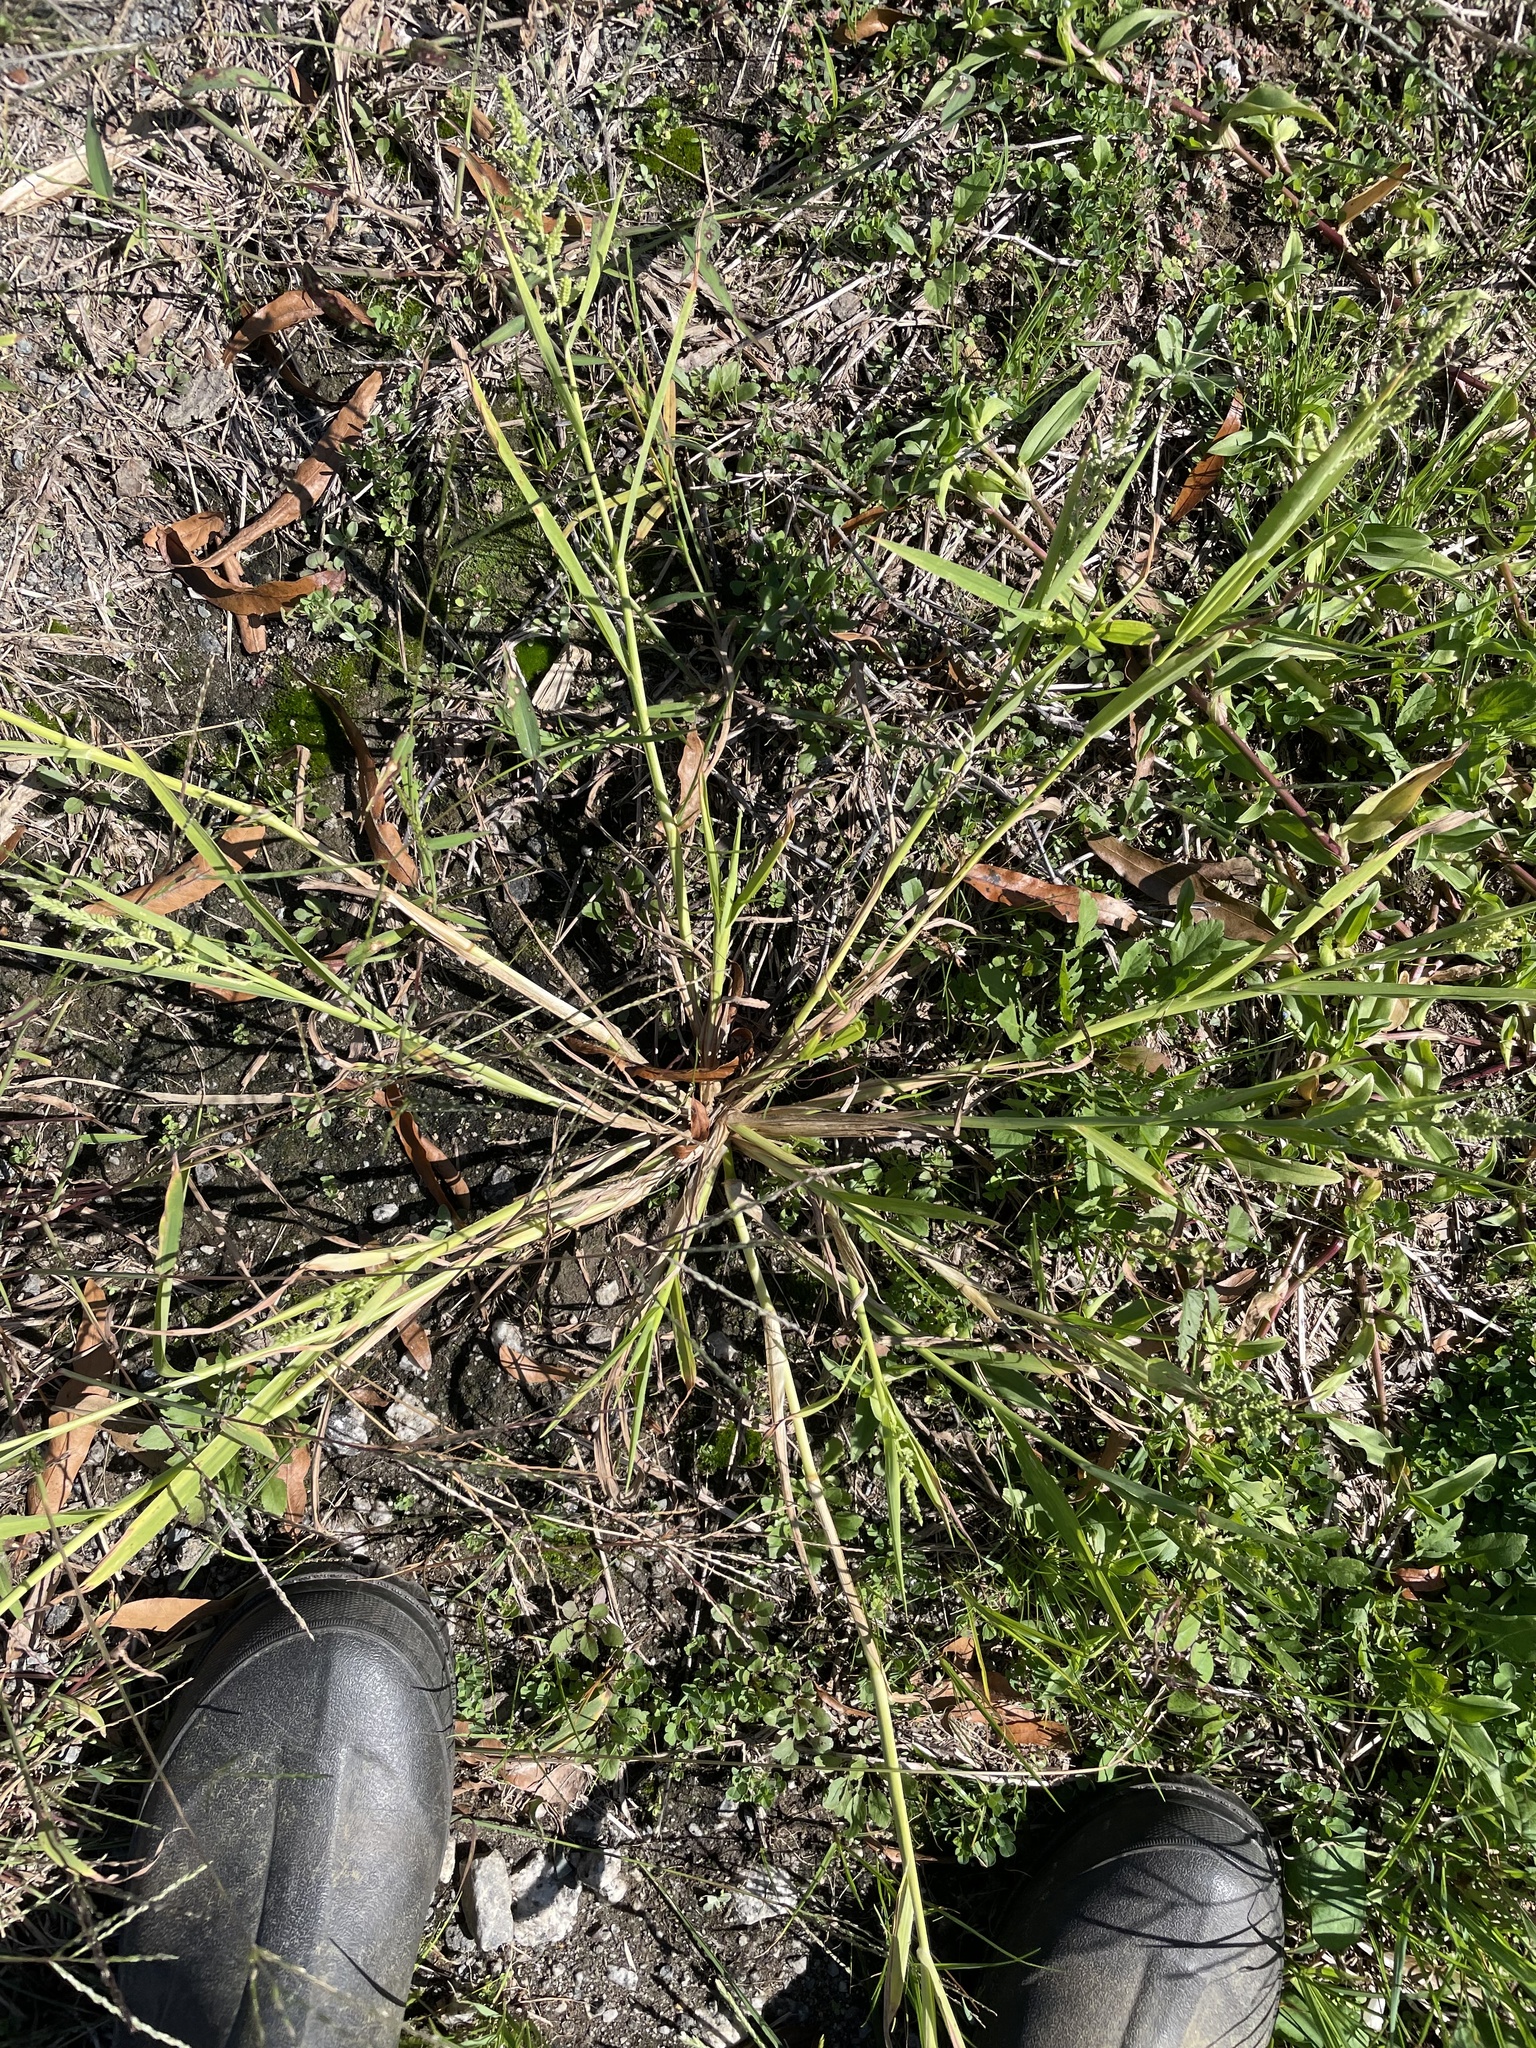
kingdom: Plantae
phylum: Tracheophyta
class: Liliopsida
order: Poales
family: Poaceae
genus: Echinochloa
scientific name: Echinochloa colonum
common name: Jungle rice
